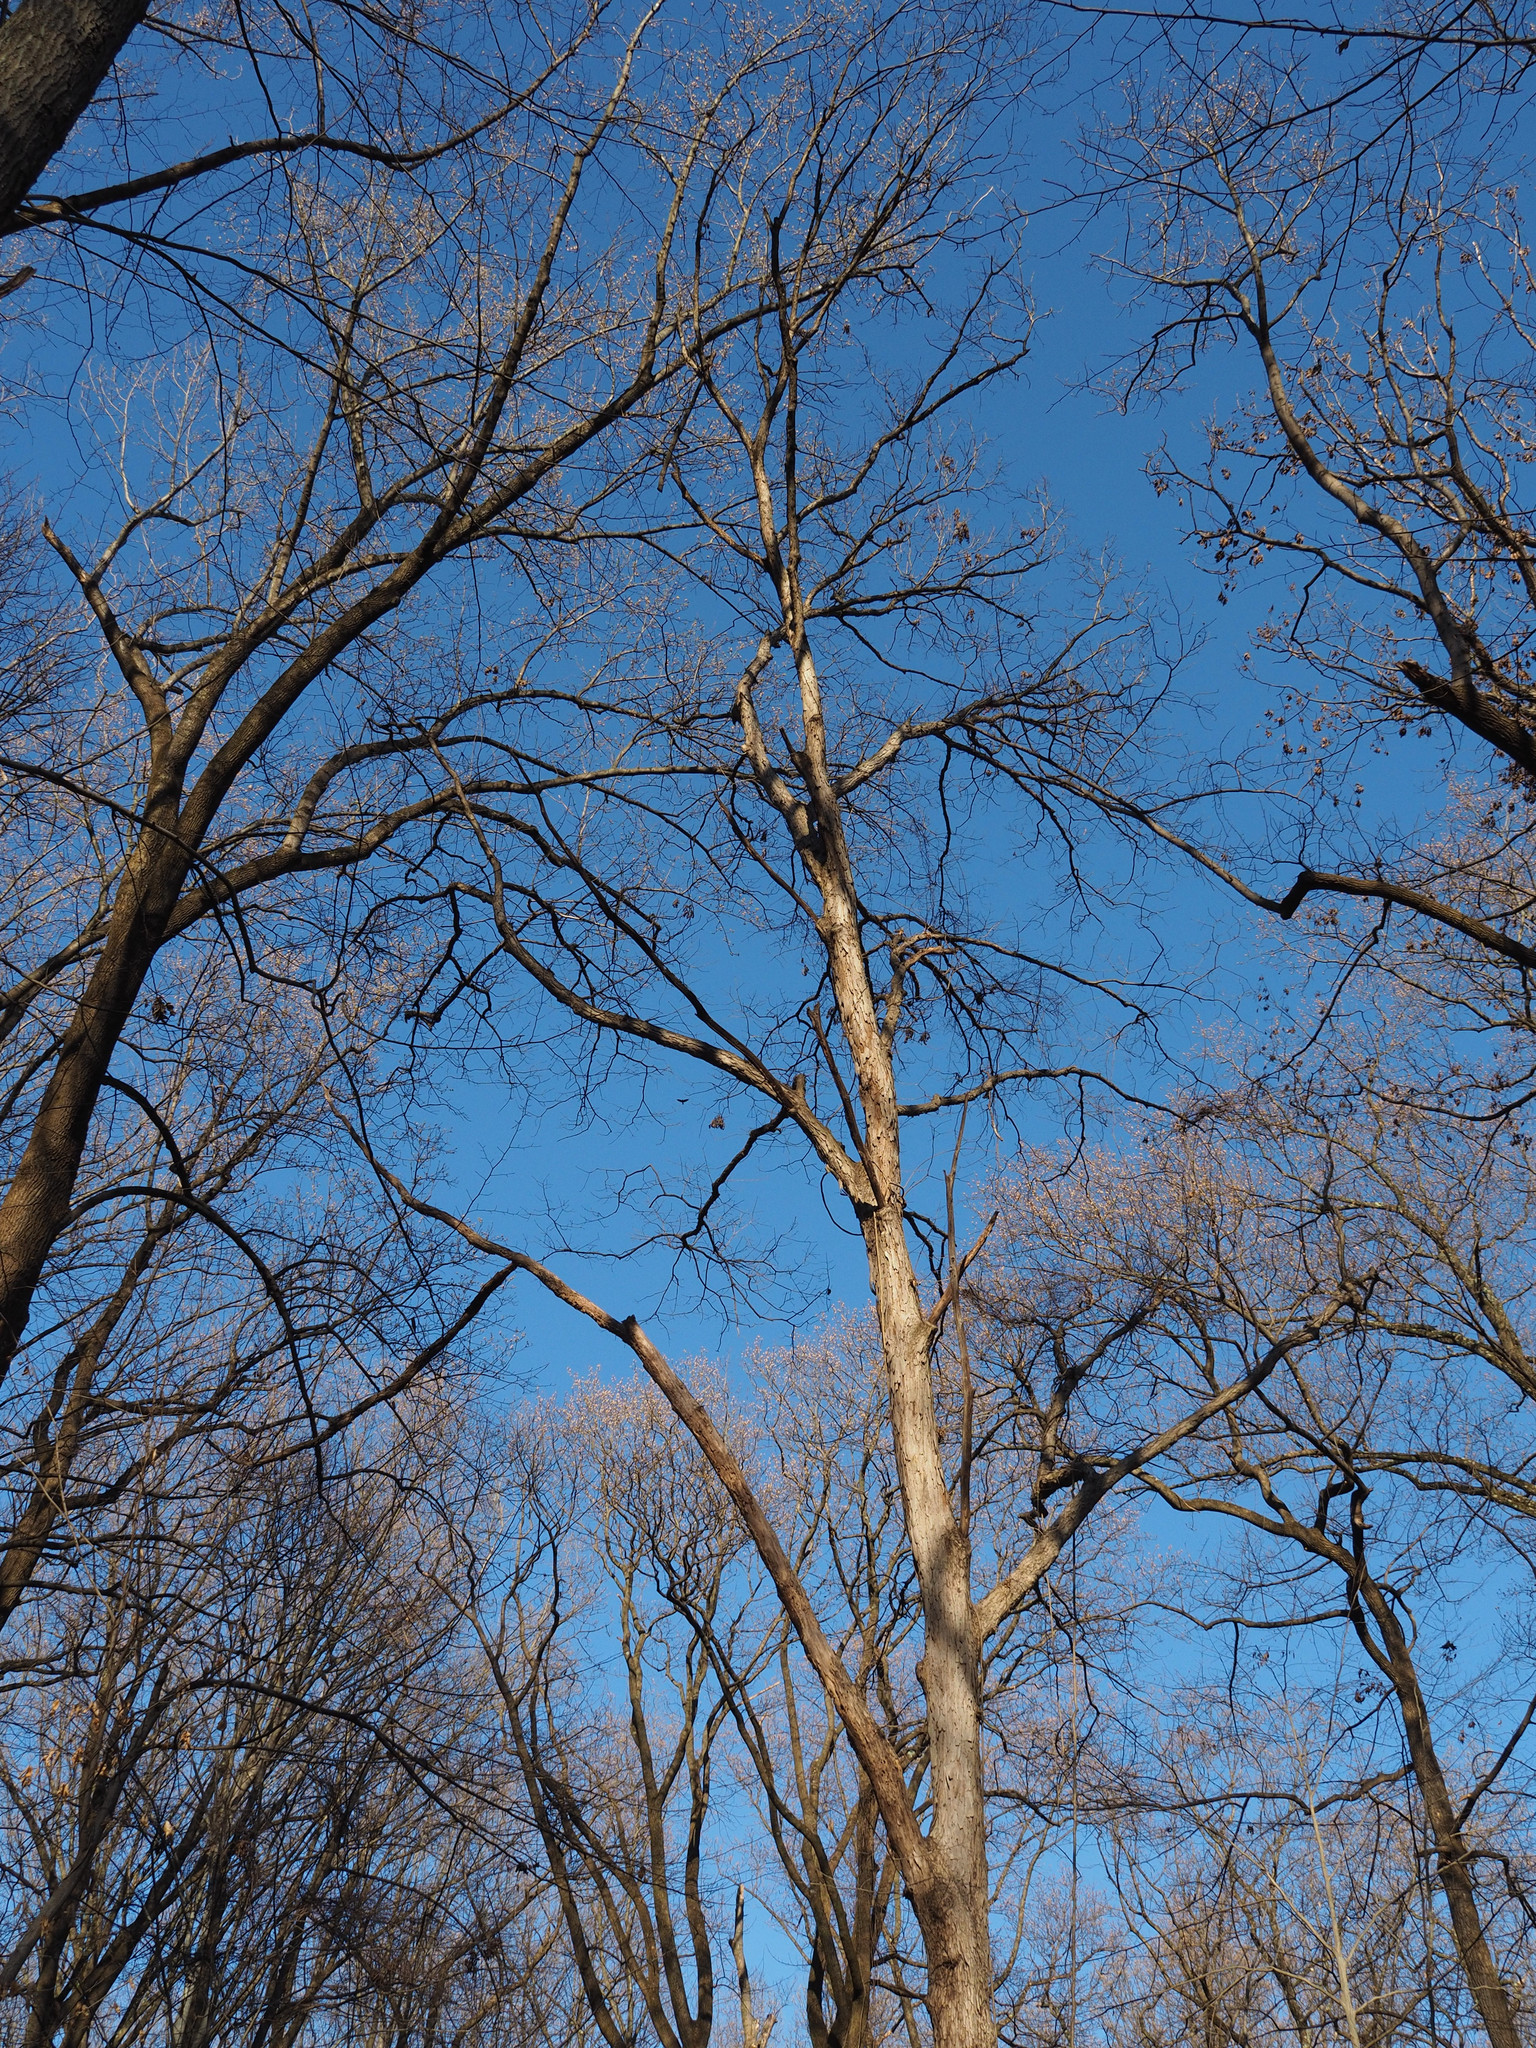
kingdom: Plantae
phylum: Tracheophyta
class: Magnoliopsida
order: Fagales
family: Fagaceae
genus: Quercus
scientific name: Quercus alba
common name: White oak
